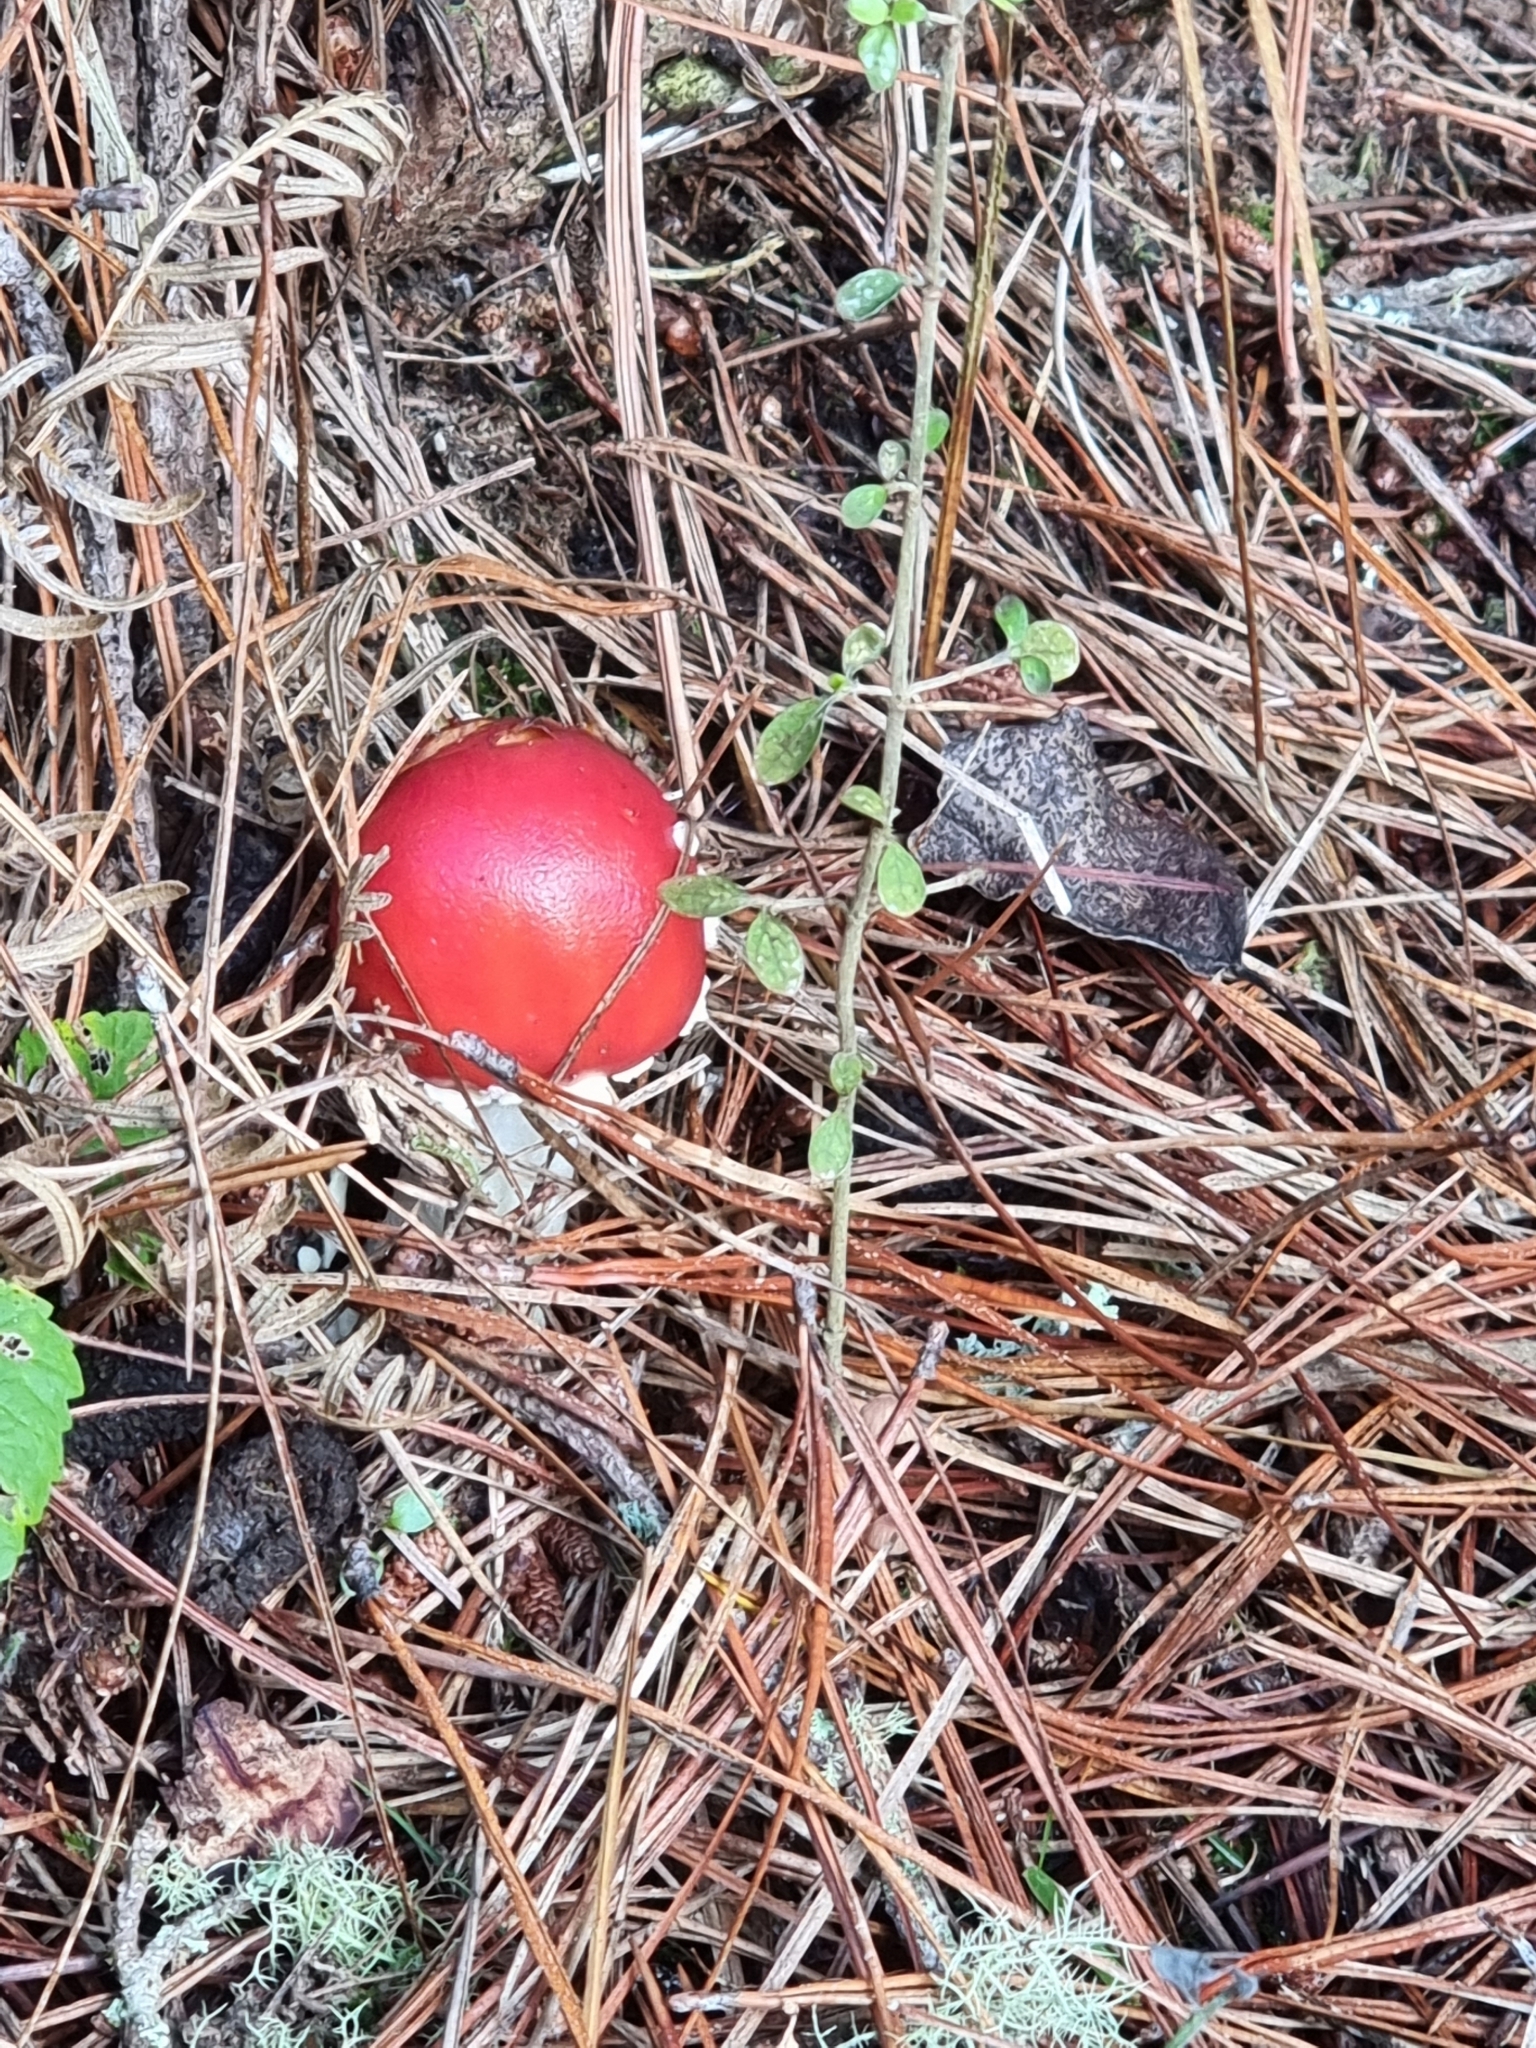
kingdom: Fungi
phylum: Basidiomycota
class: Agaricomycetes
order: Agaricales
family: Amanitaceae
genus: Amanita
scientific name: Amanita muscaria
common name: Fly agaric
